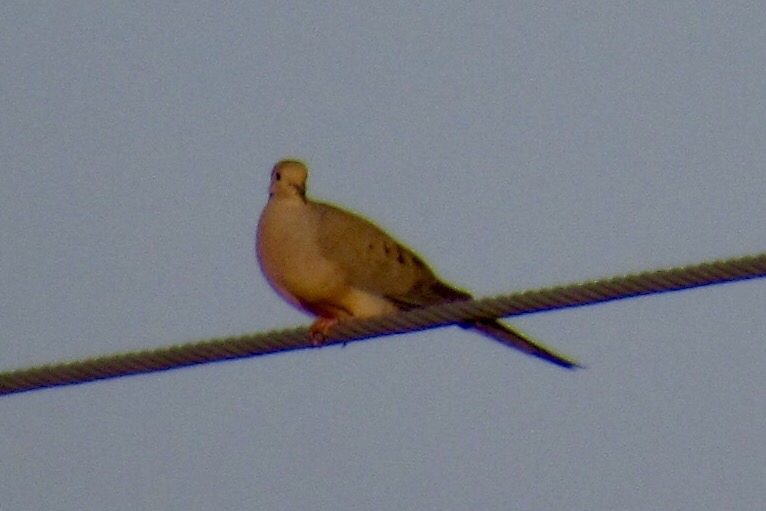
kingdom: Animalia
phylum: Chordata
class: Aves
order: Columbiformes
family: Columbidae
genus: Zenaida
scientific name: Zenaida macroura
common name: Mourning dove
